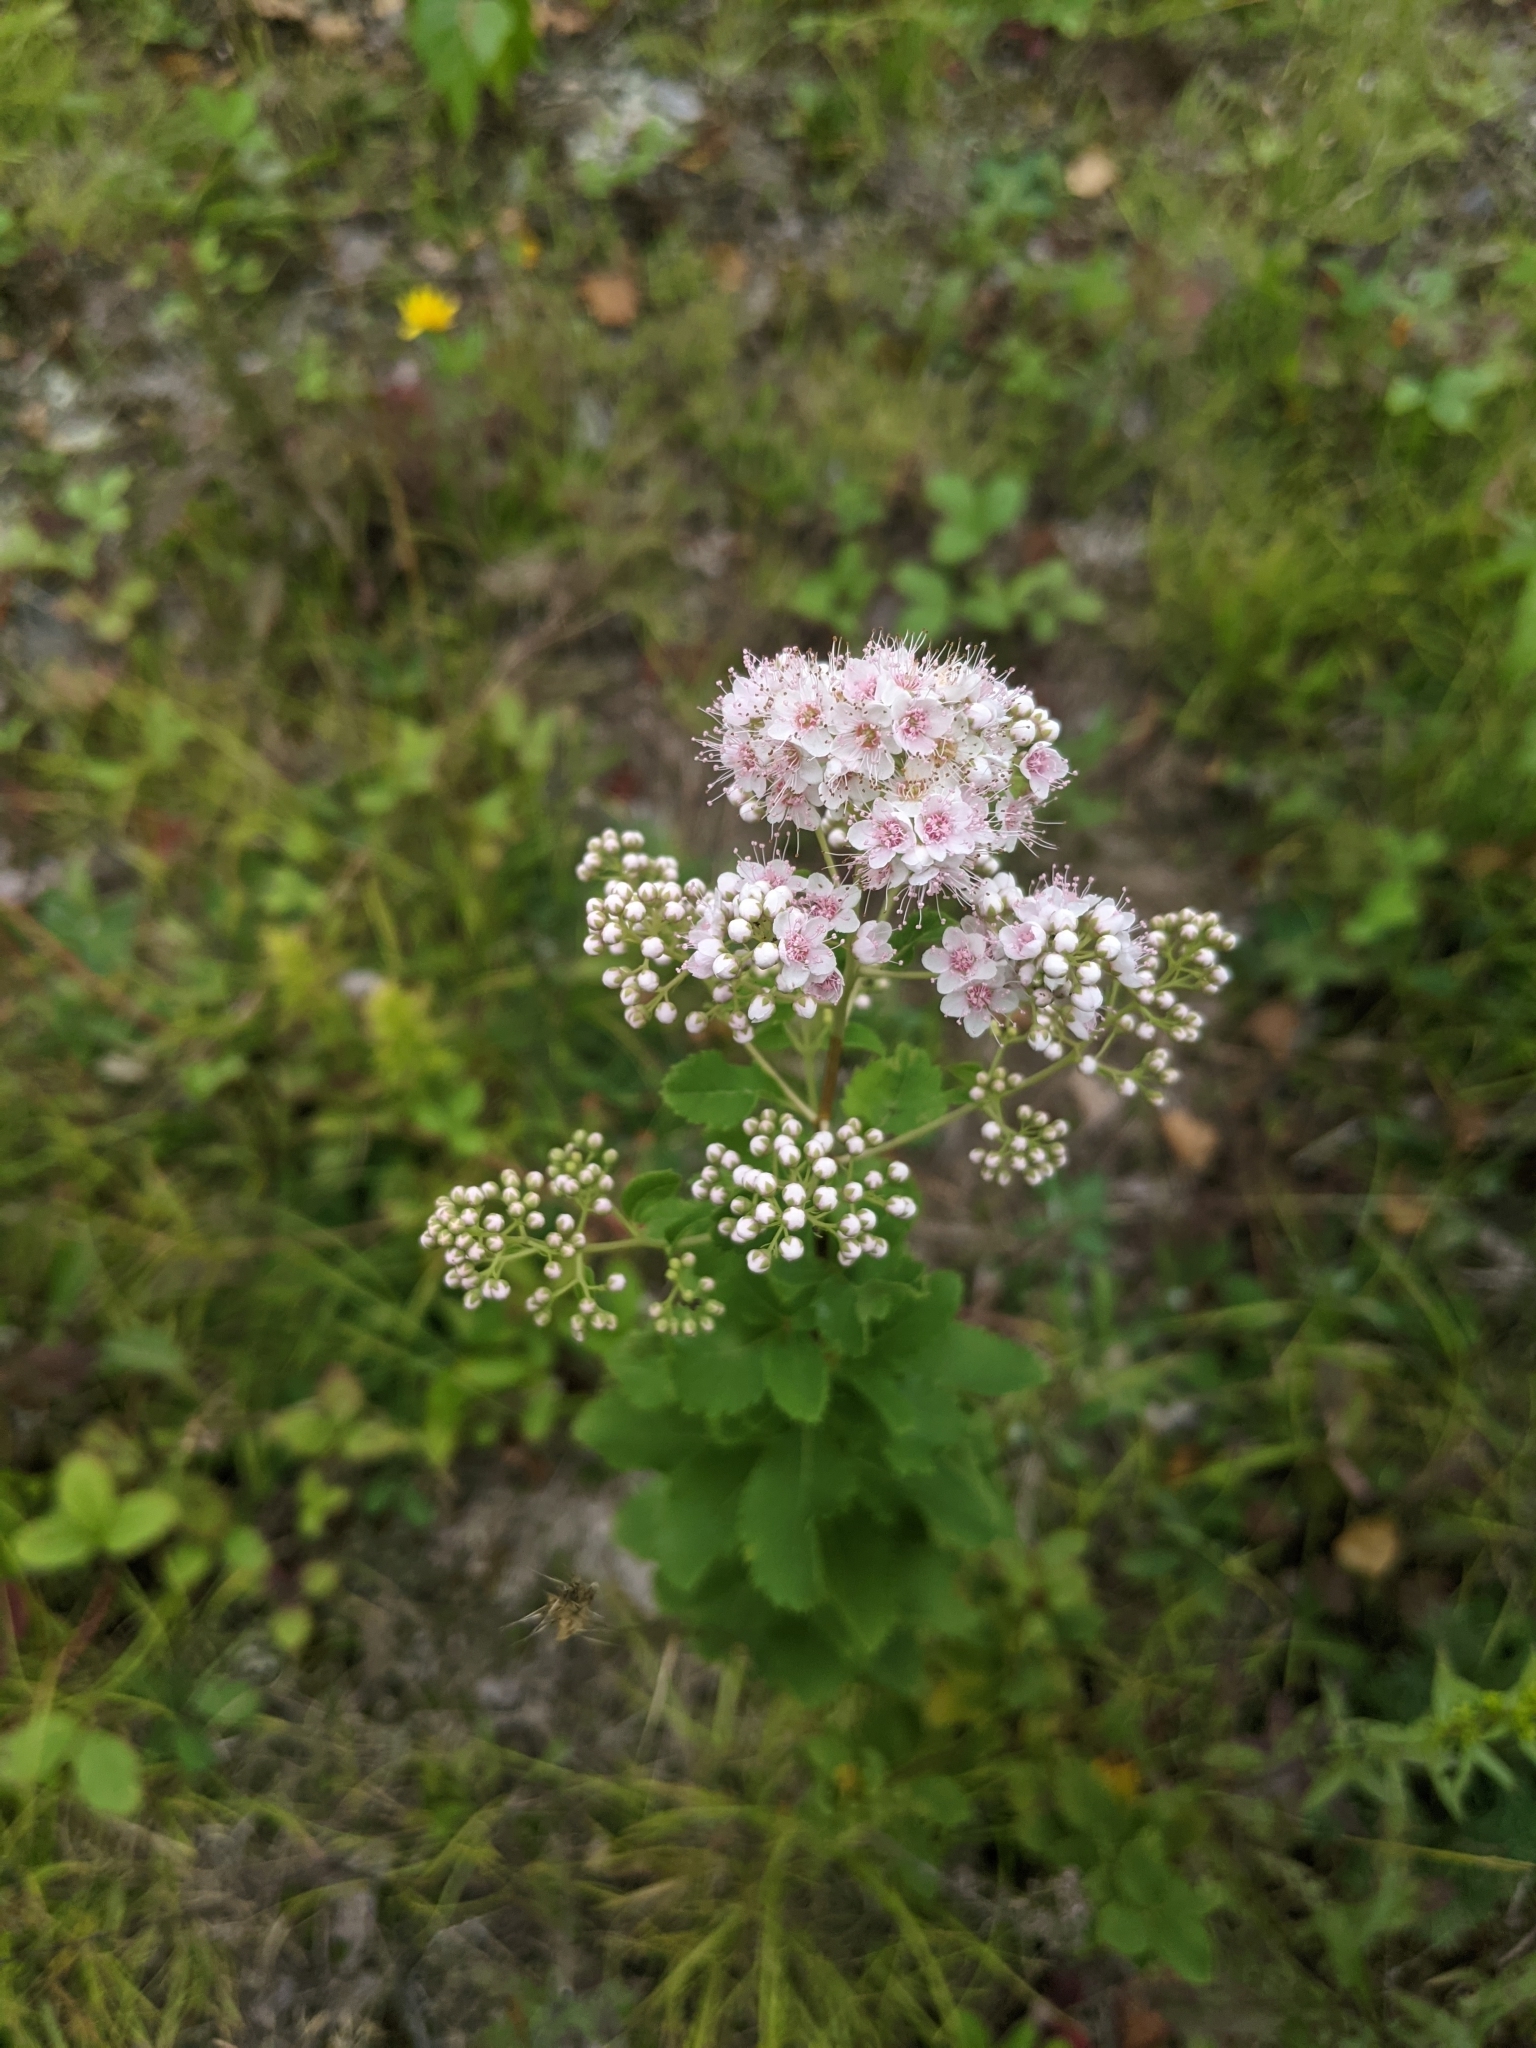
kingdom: Plantae
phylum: Tracheophyta
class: Magnoliopsida
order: Rosales
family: Rosaceae
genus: Spiraea
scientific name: Spiraea alba
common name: Pale bridewort
